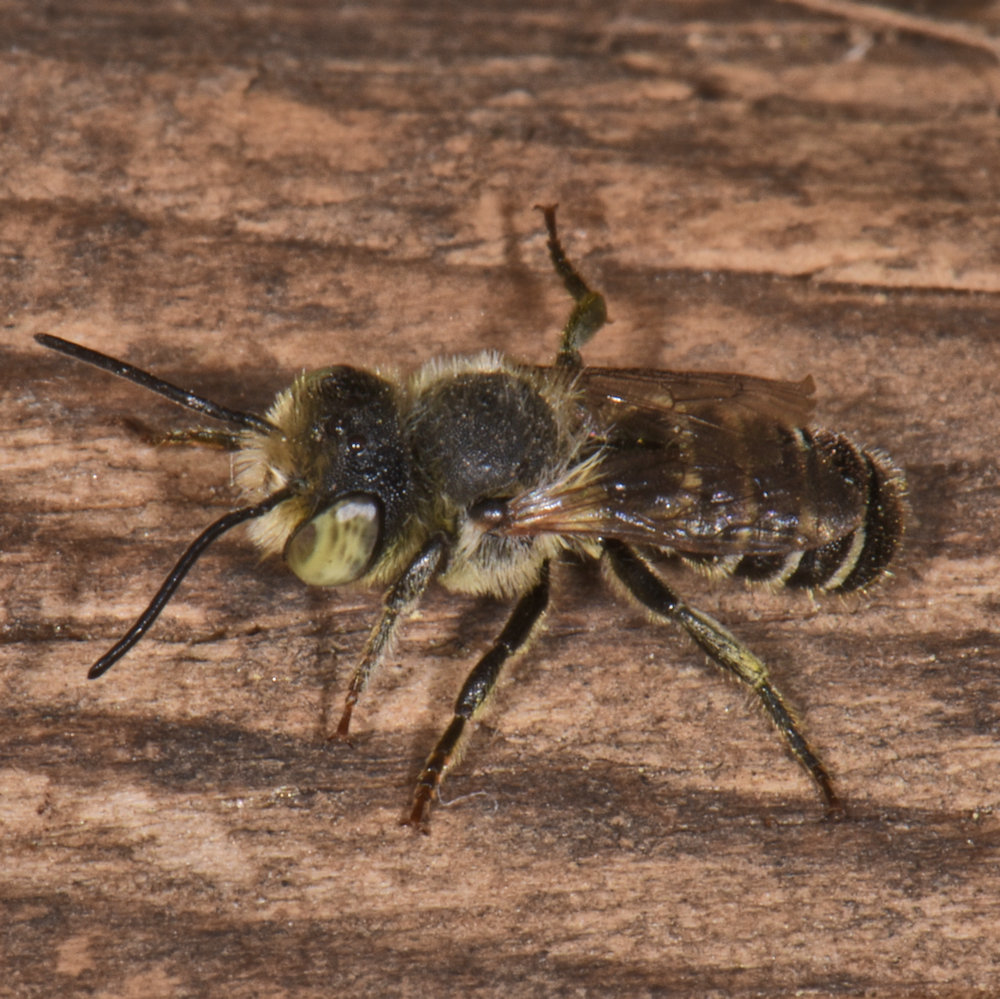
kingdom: Animalia
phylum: Arthropoda
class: Insecta
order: Hymenoptera
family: Megachilidae
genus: Megachile
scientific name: Megachile rotundata
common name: Alfalfa leafcutting bee
